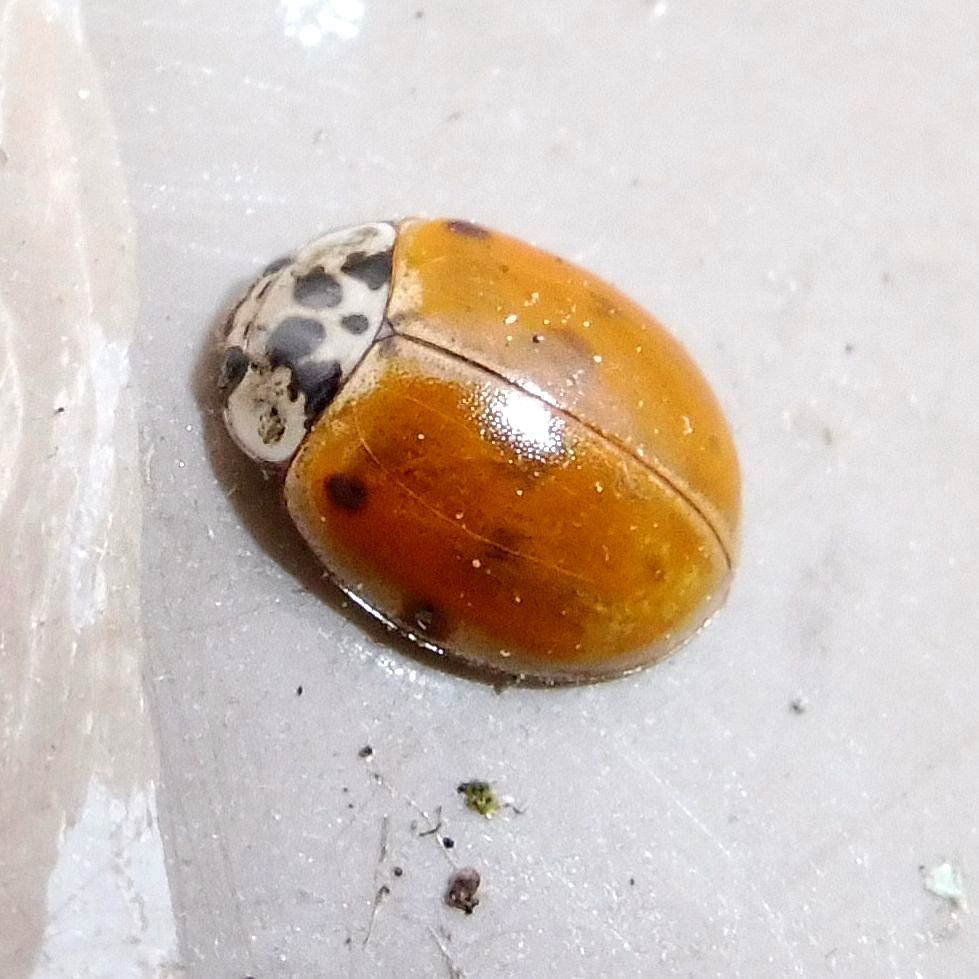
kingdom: Animalia
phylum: Arthropoda
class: Insecta
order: Coleoptera
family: Coccinellidae
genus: Adalia
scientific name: Adalia decempunctata
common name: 10-spot ladybird
